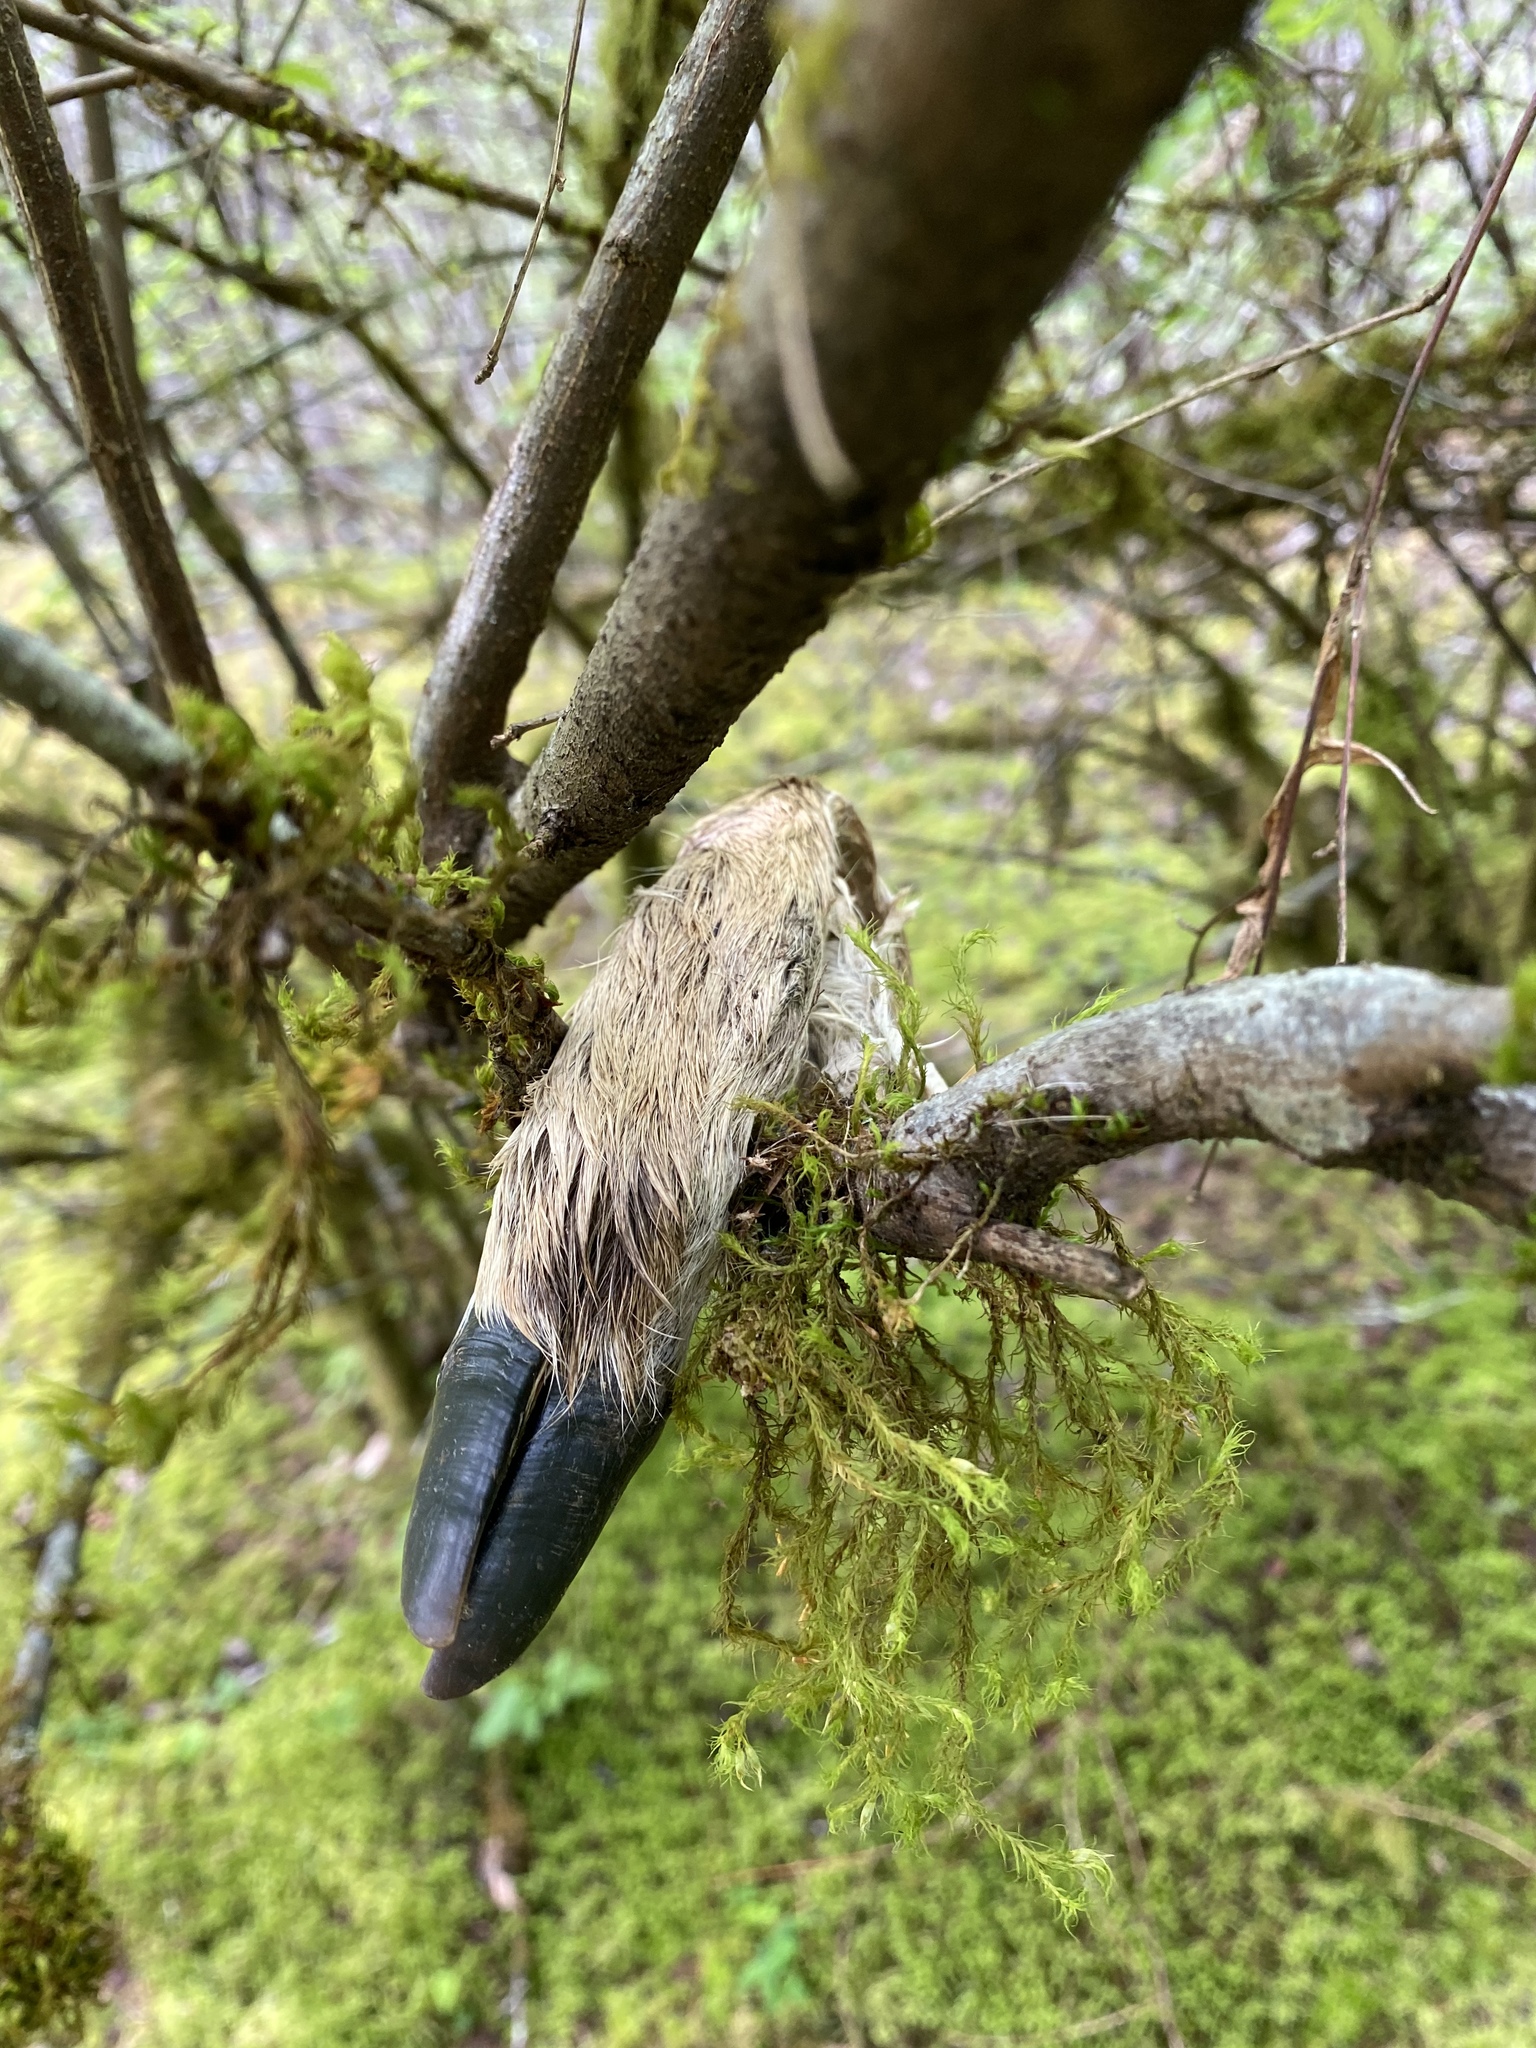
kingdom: Animalia
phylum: Chordata
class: Mammalia
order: Artiodactyla
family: Cervidae
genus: Odocoileus
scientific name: Odocoileus hemionus
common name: Mule deer
